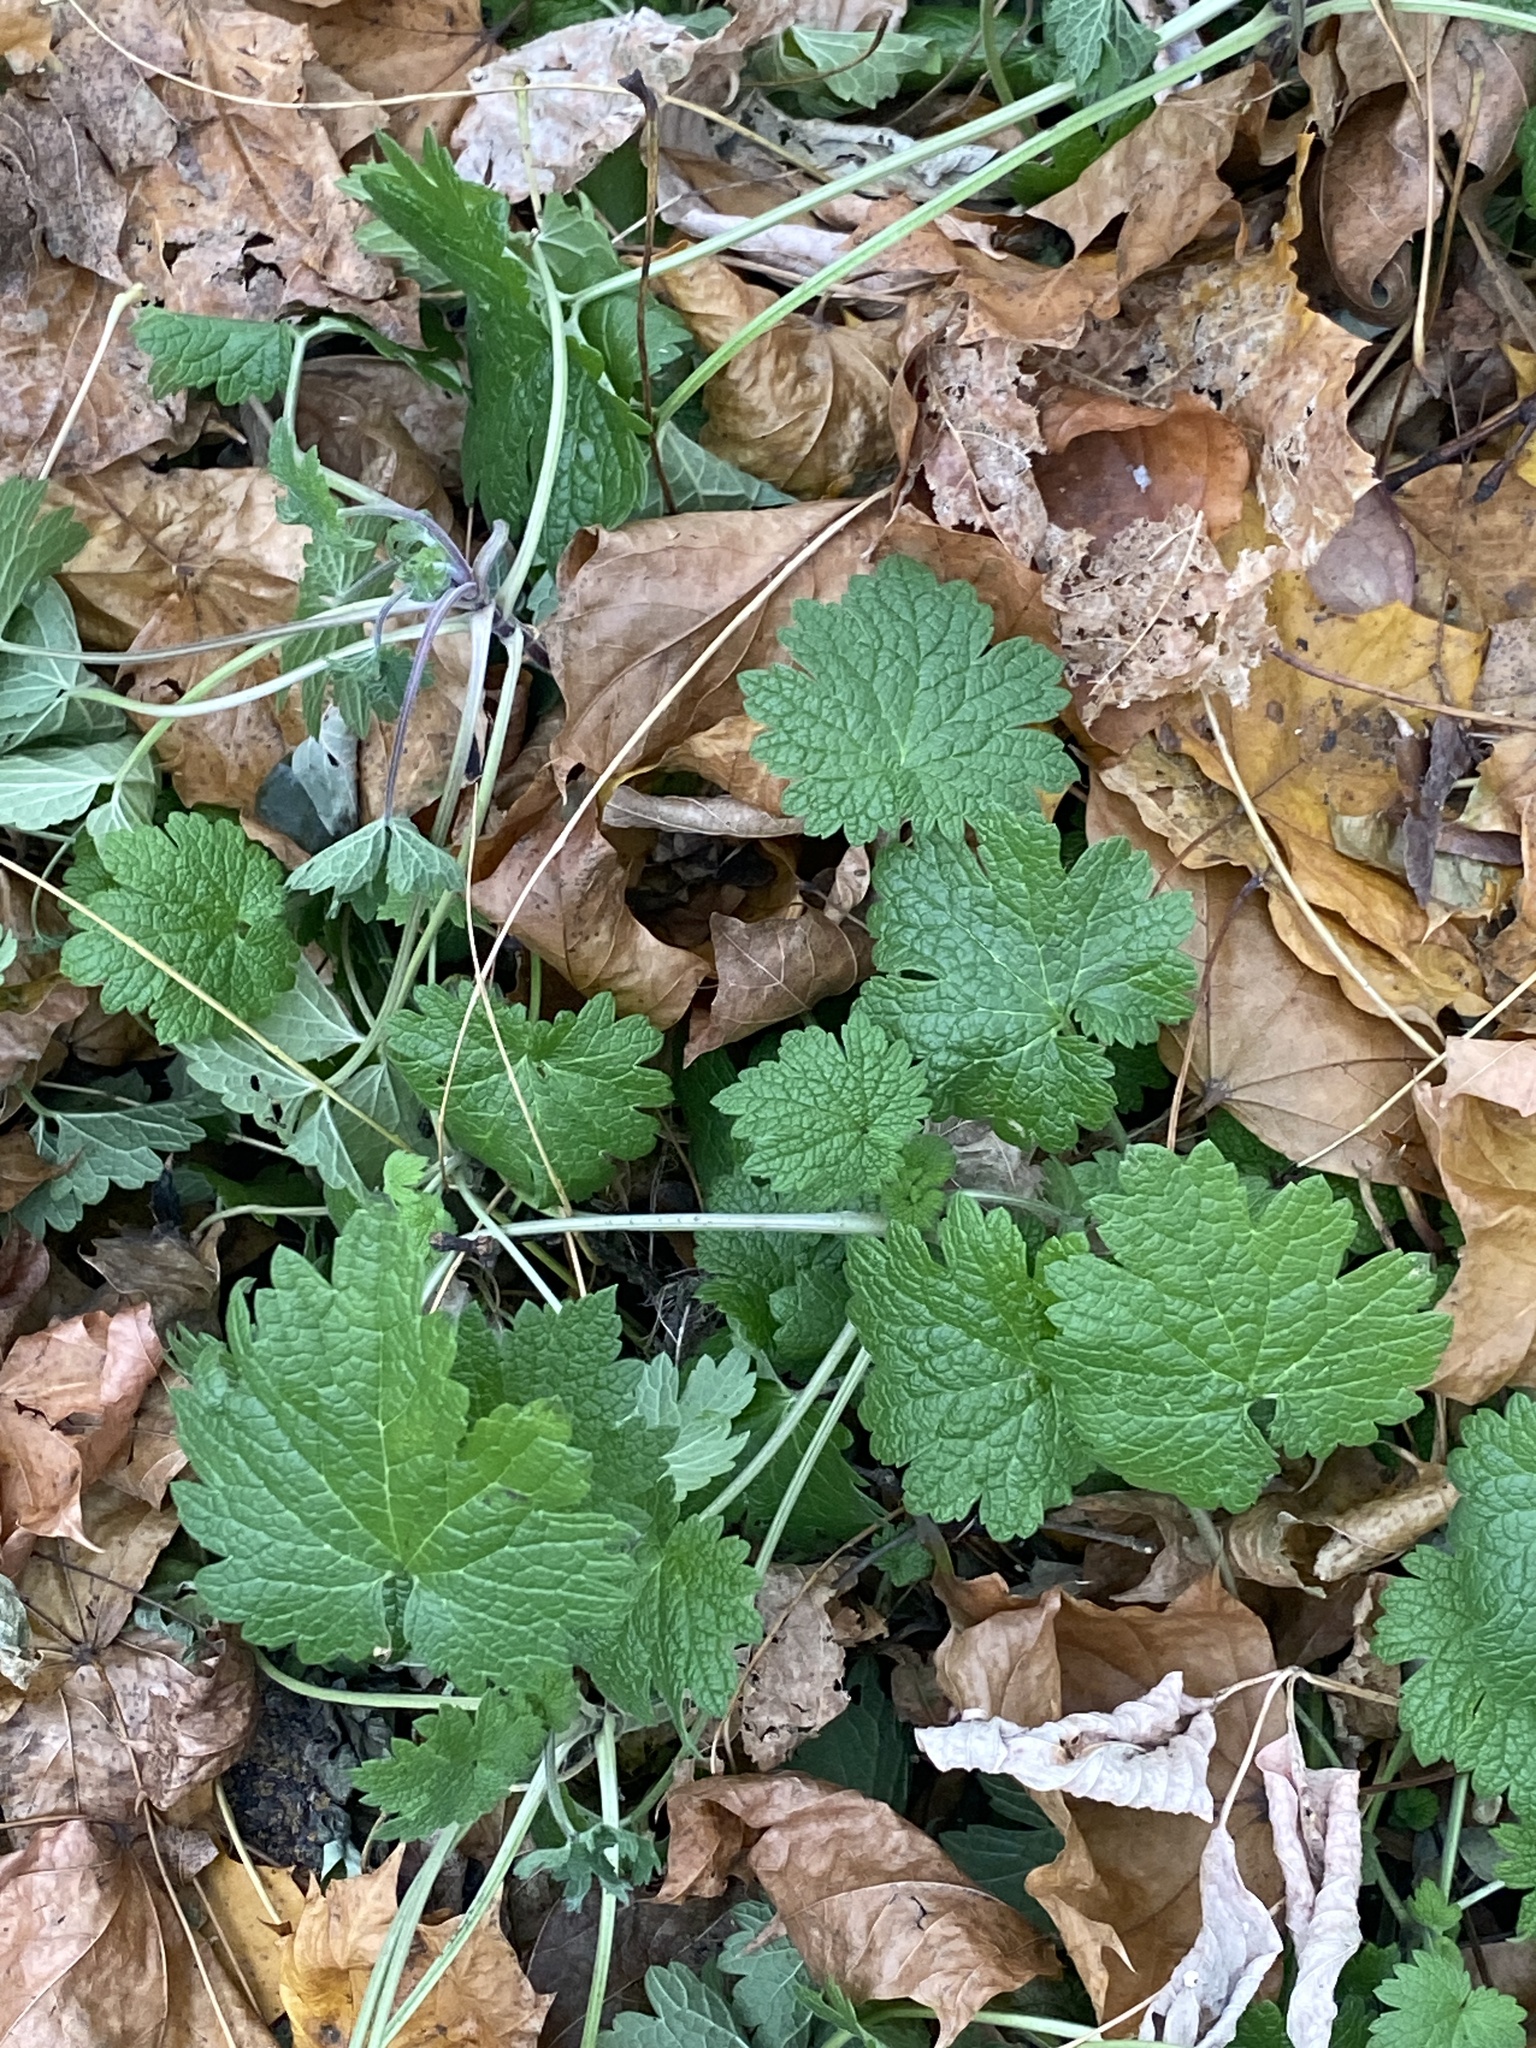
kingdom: Plantae
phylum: Tracheophyta
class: Magnoliopsida
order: Lamiales
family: Lamiaceae
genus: Leonurus
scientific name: Leonurus cardiaca
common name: Motherwort
